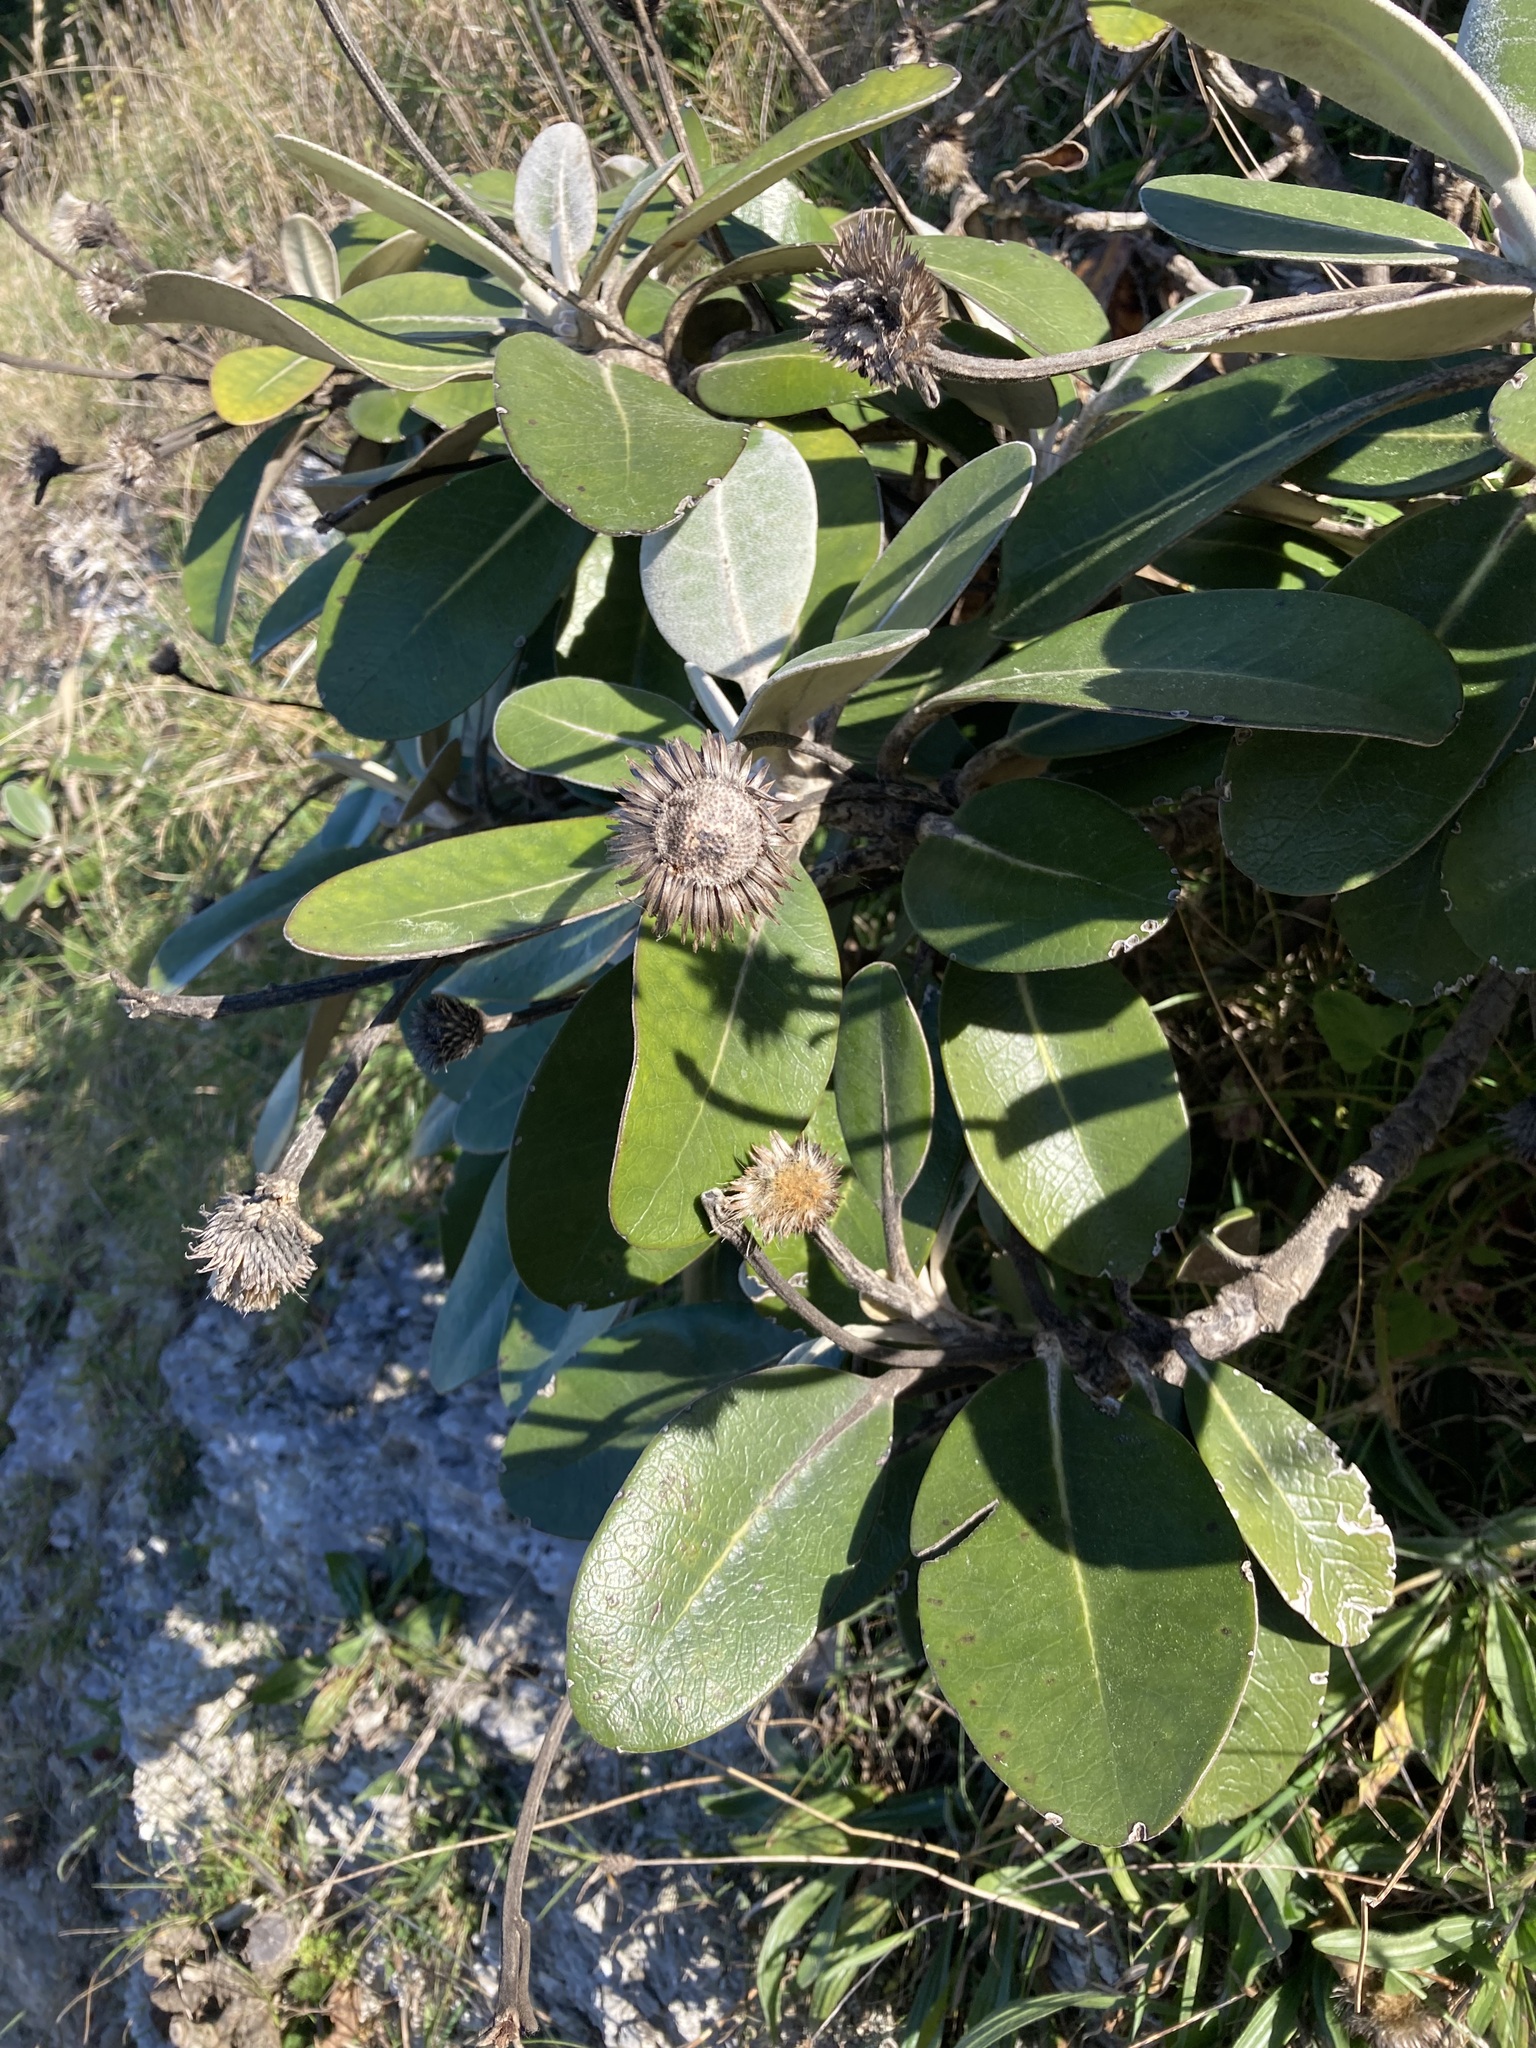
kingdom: Plantae
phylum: Tracheophyta
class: Magnoliopsida
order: Asterales
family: Asteraceae
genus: Pachystegia
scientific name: Pachystegia insignis
